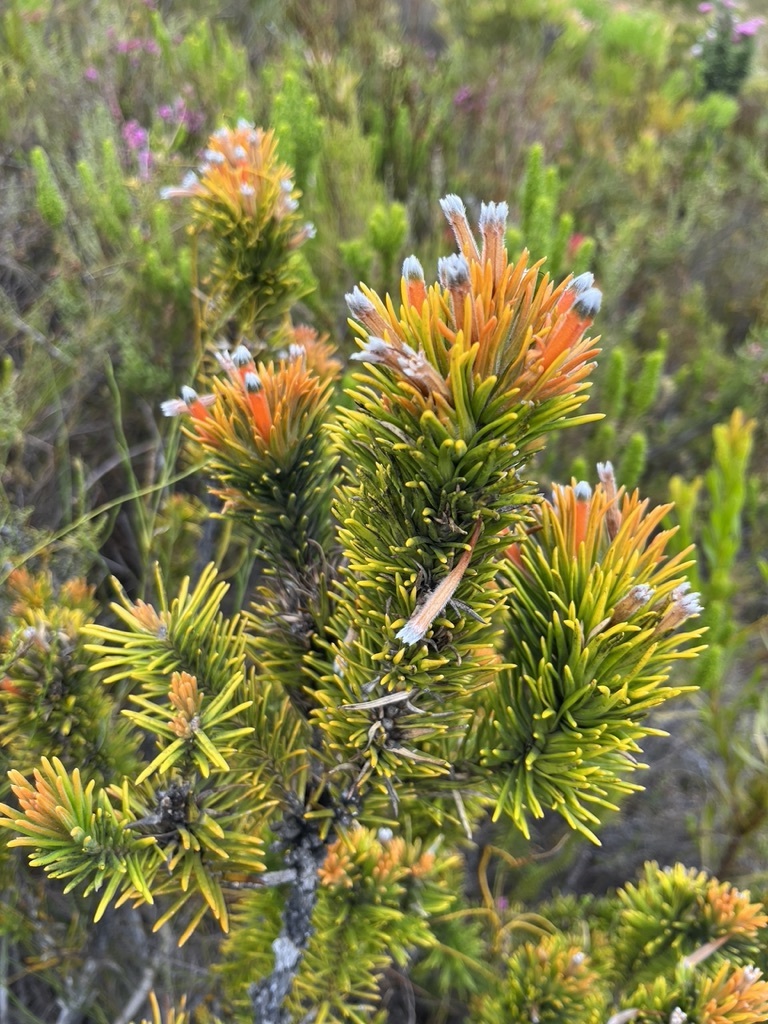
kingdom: Plantae
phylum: Tracheophyta
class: Magnoliopsida
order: Lamiales
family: Stilbaceae
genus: Retzia
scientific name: Retzia capensis
